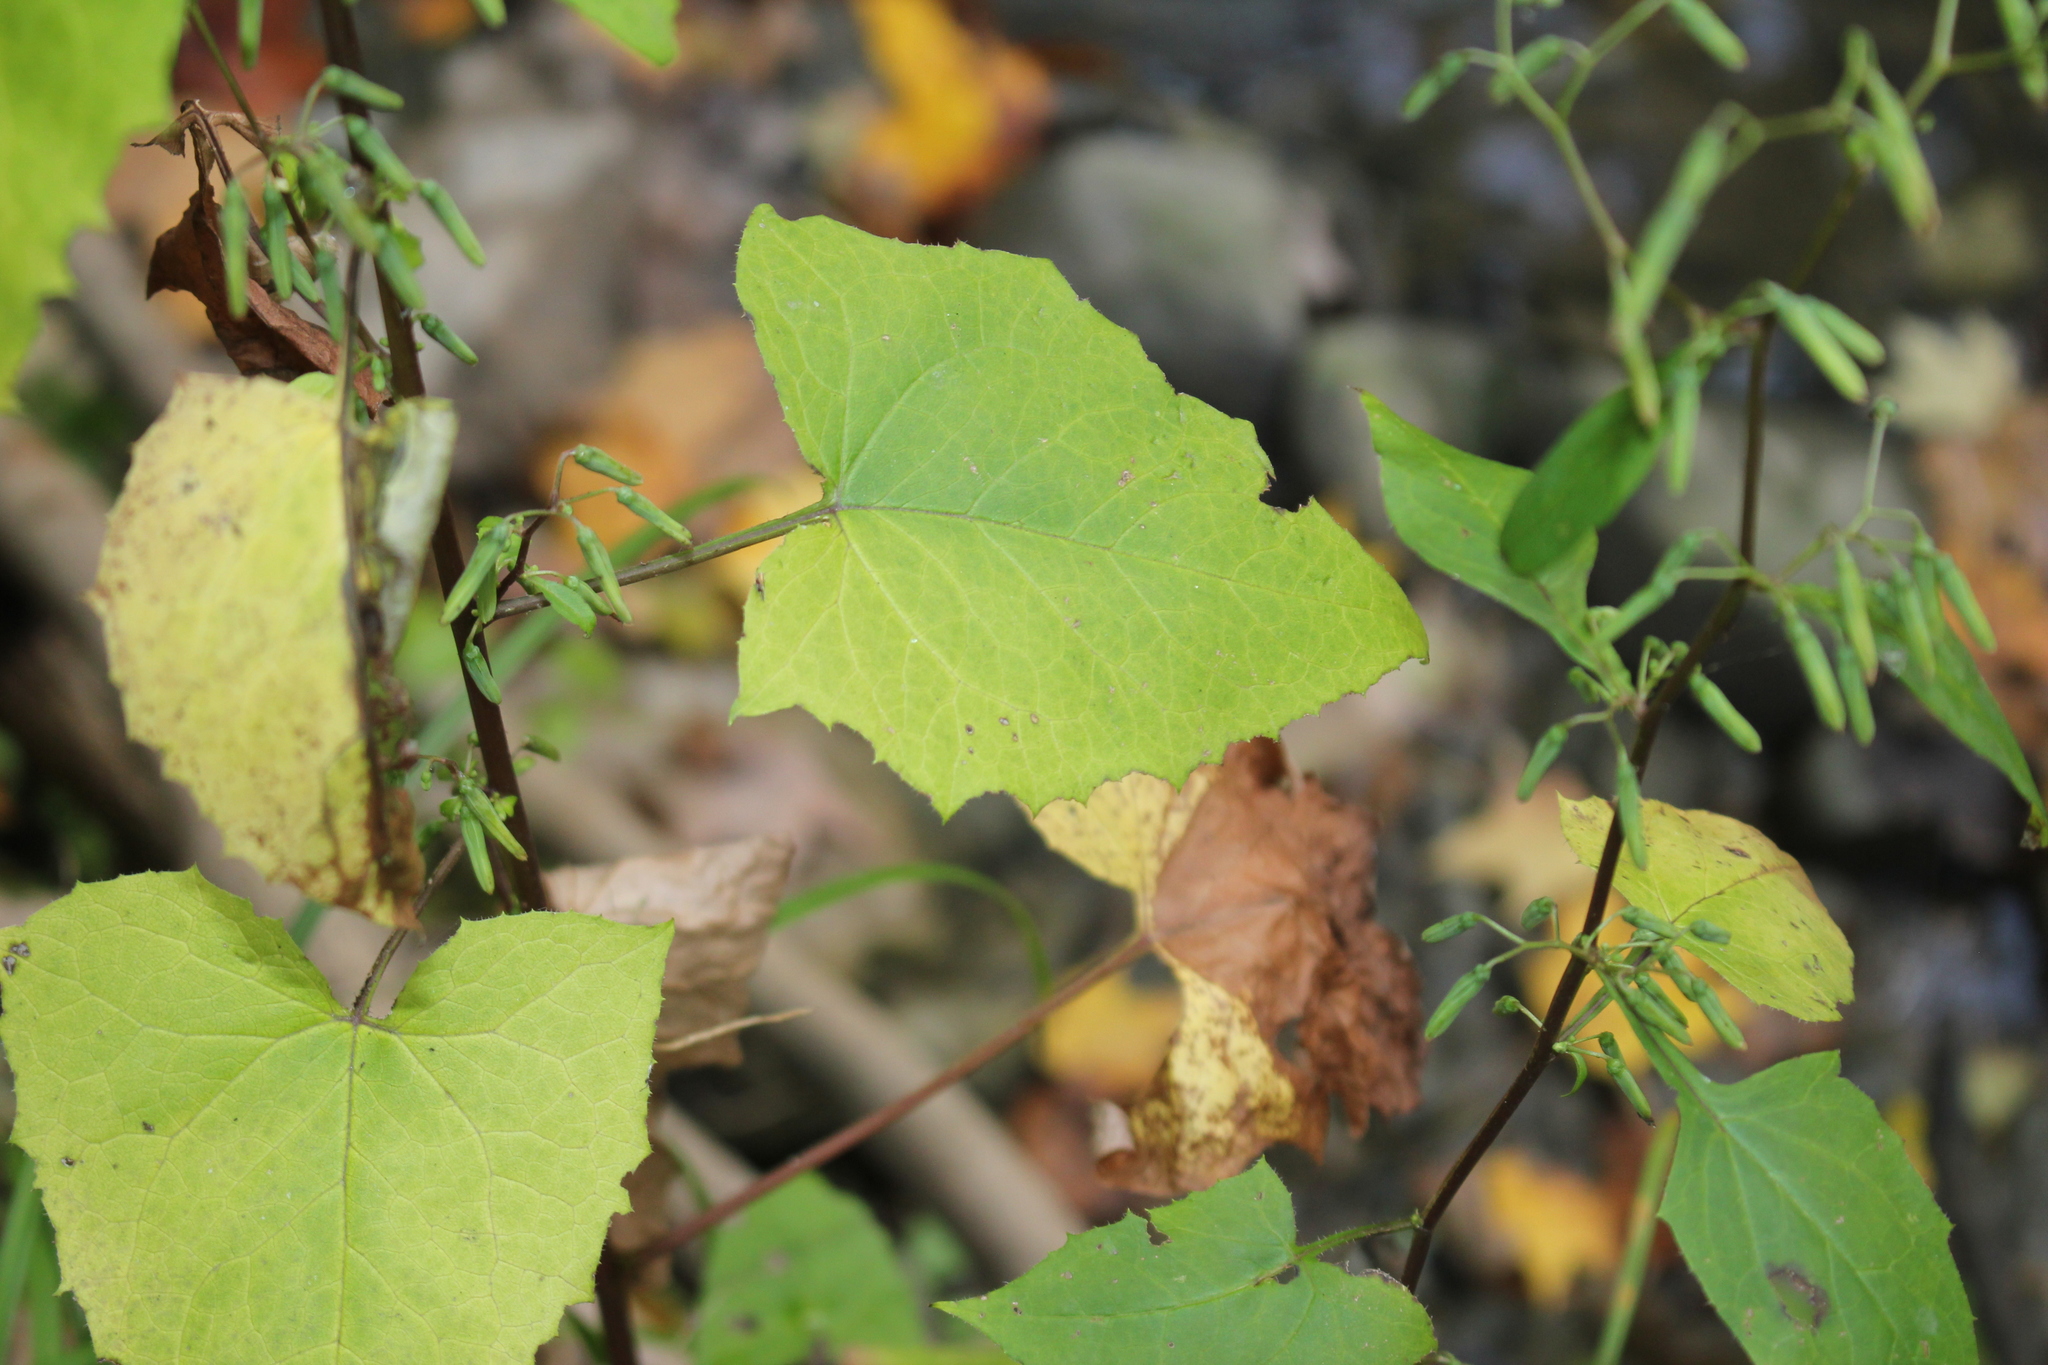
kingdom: Plantae
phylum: Tracheophyta
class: Magnoliopsida
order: Asterales
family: Asteraceae
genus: Nabalus
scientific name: Nabalus altissima
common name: Tall rattlesnakeroot
